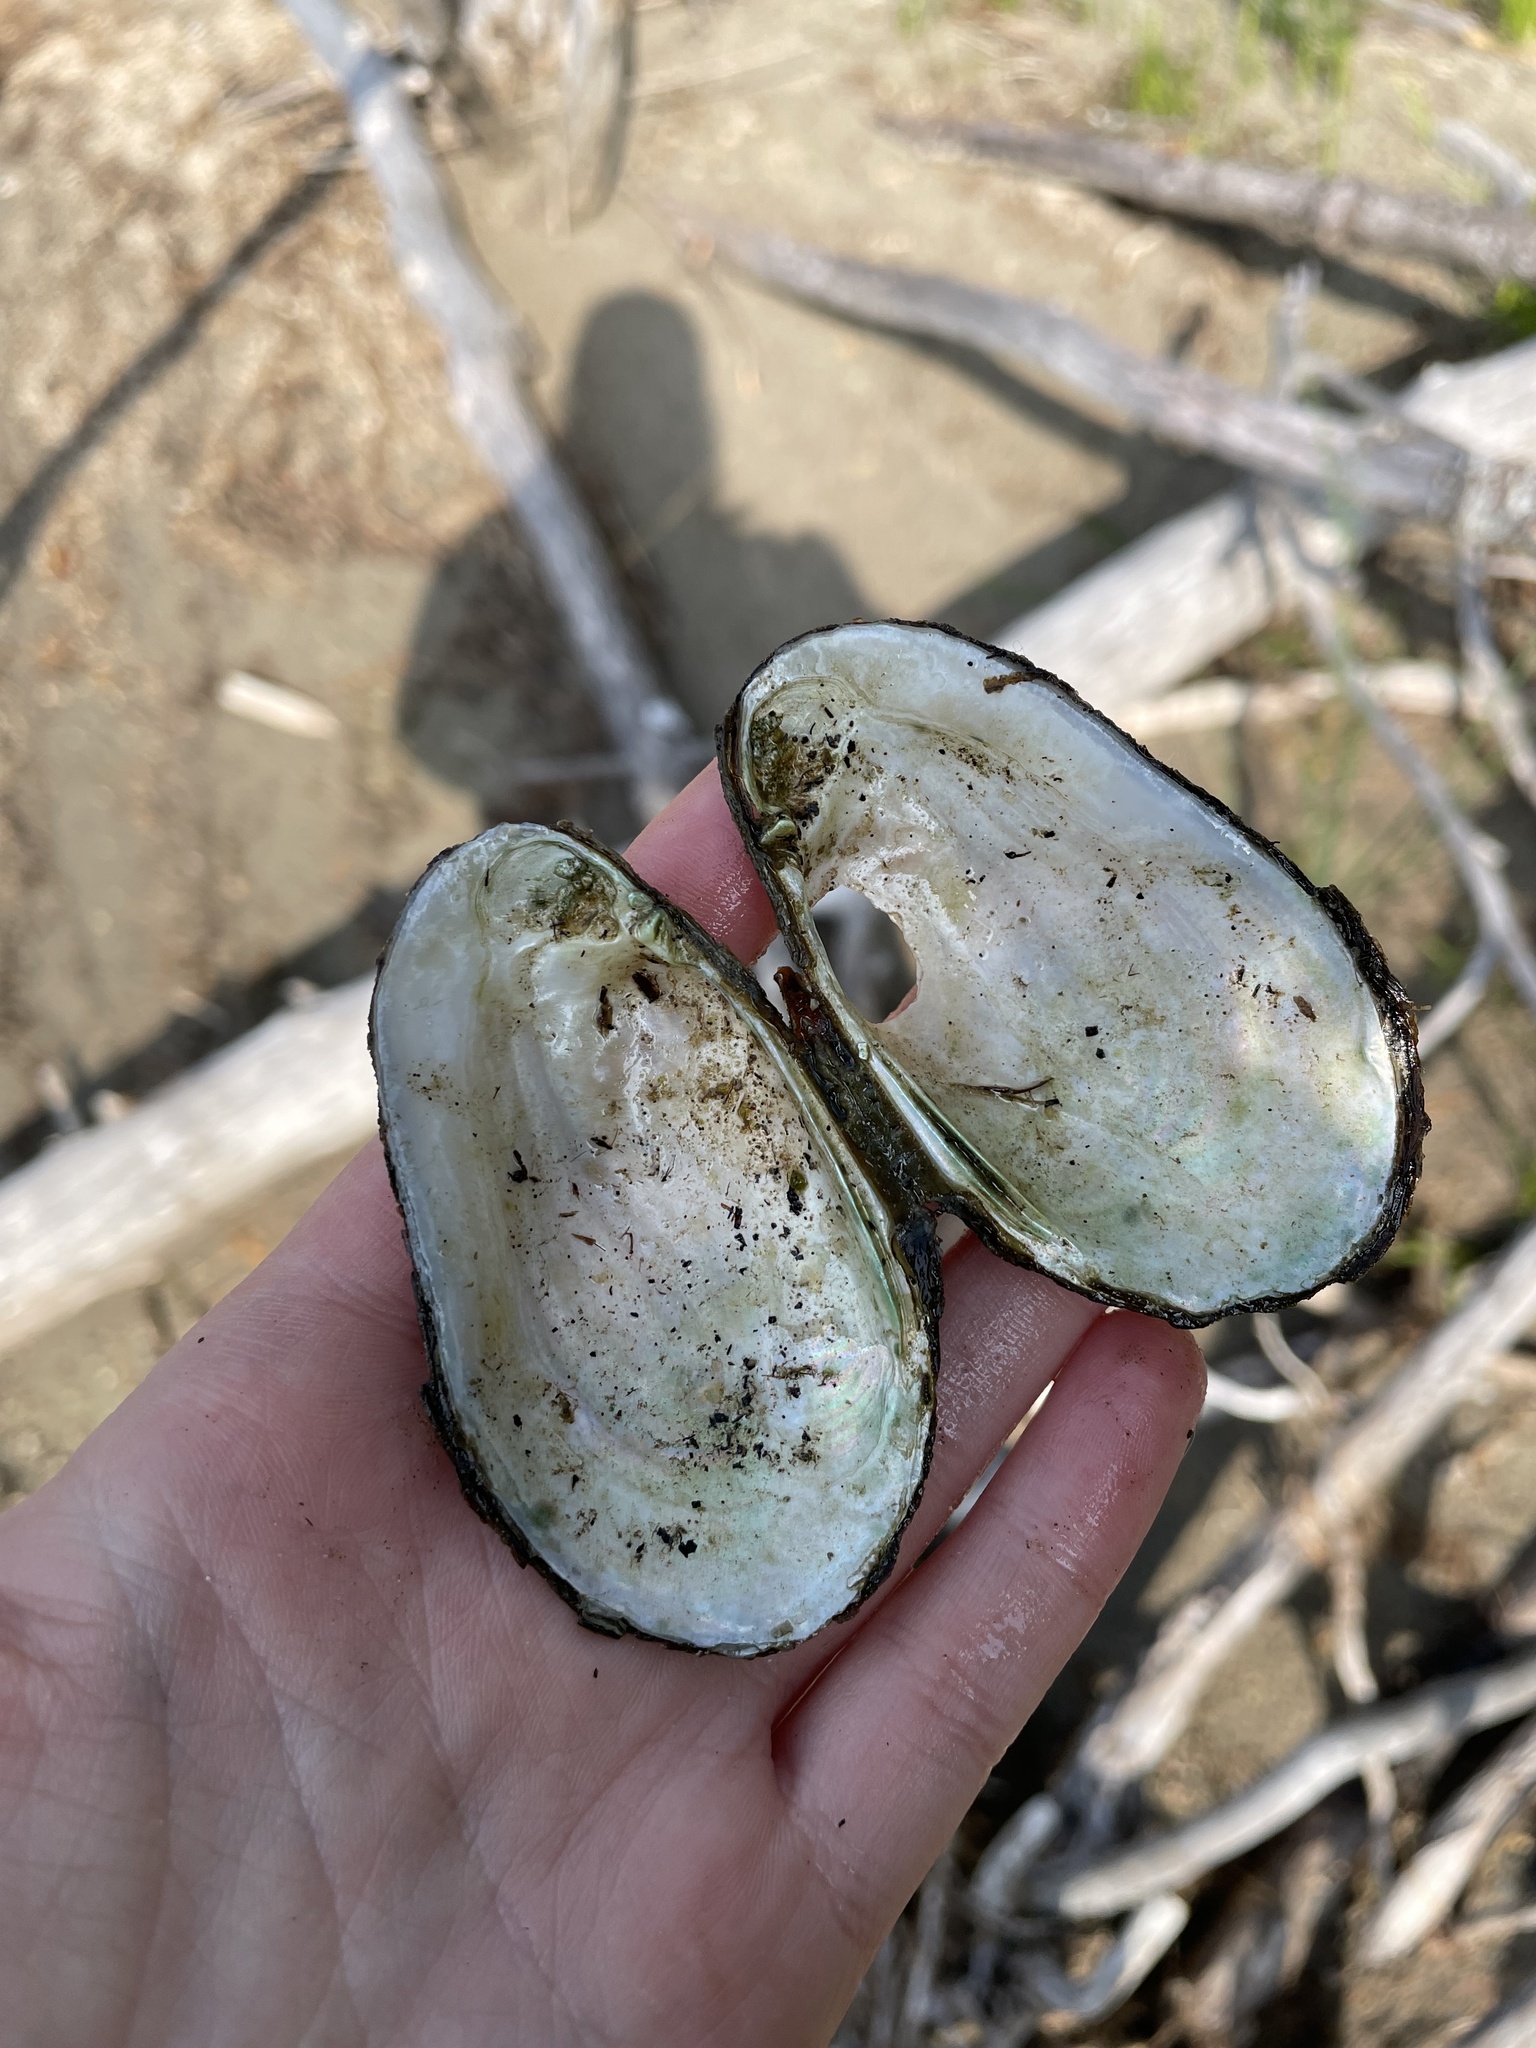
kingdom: Animalia
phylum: Mollusca
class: Bivalvia
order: Unionida
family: Unionidae
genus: Lampsilis
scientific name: Lampsilis siliquoidea
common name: Fatmucket
